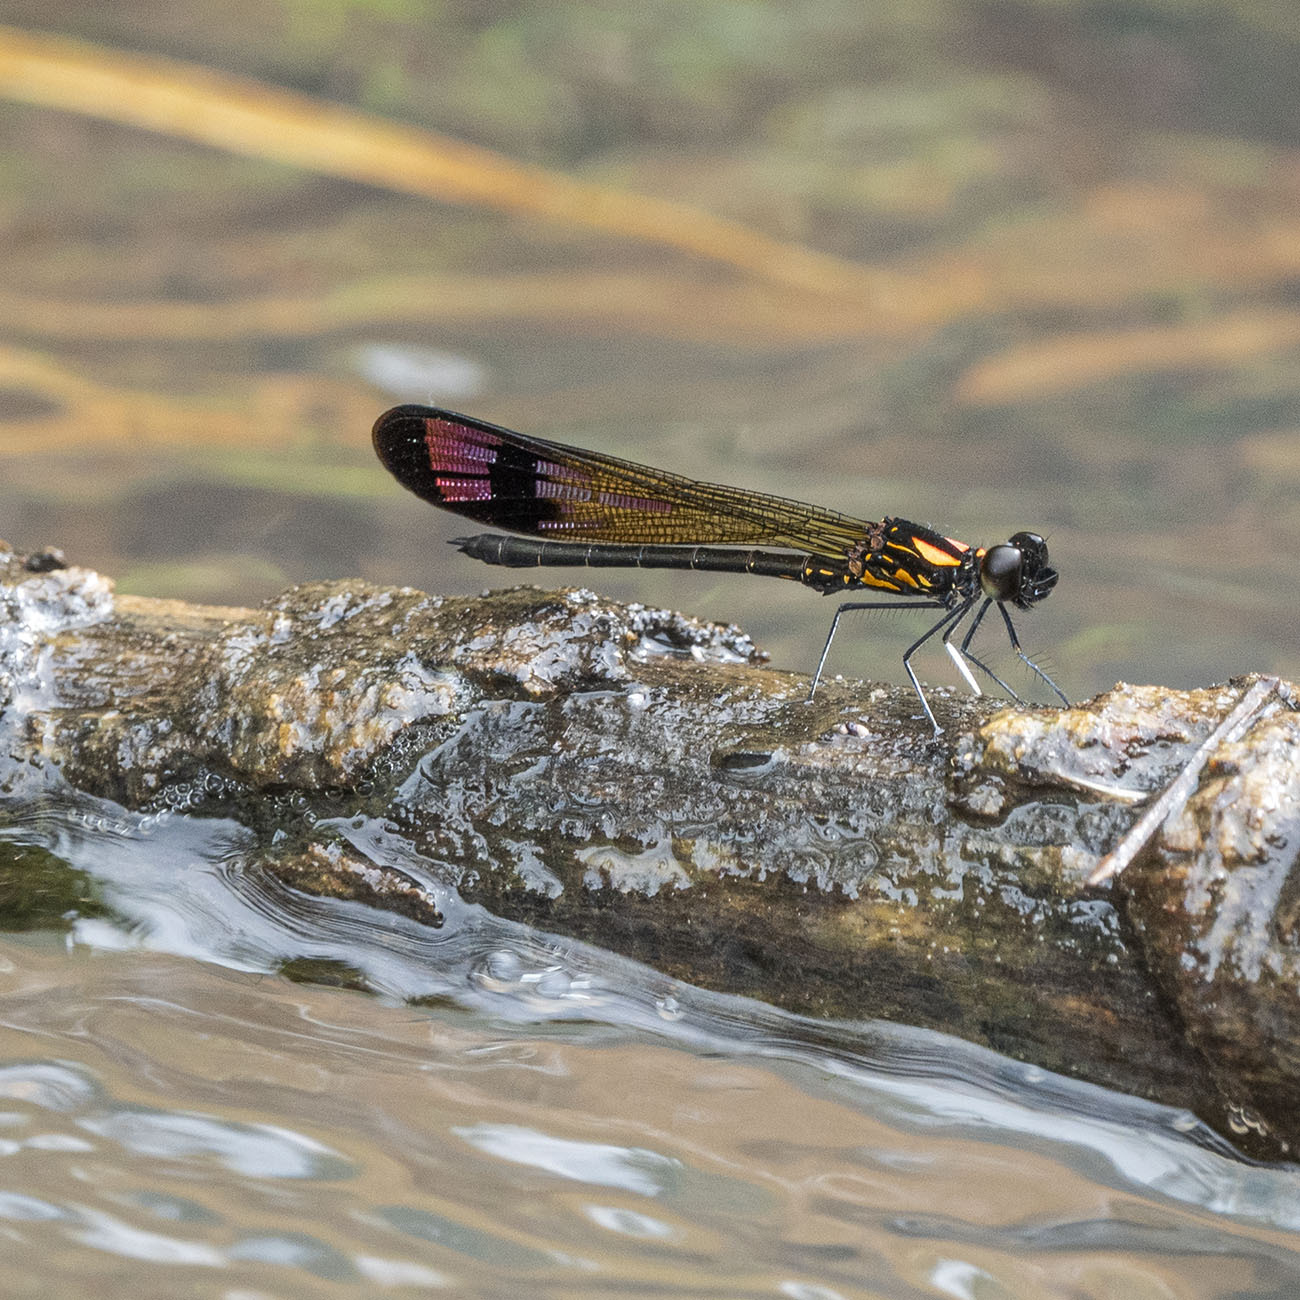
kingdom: Animalia
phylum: Arthropoda
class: Insecta
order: Odonata
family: Chlorocyphidae
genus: Heliocypha
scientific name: Heliocypha bisignata
